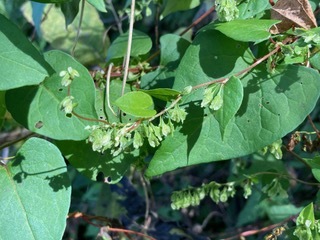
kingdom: Plantae
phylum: Tracheophyta
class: Magnoliopsida
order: Caryophyllales
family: Polygonaceae
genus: Fallopia
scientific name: Fallopia scandens
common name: Climbing false buckwheat
